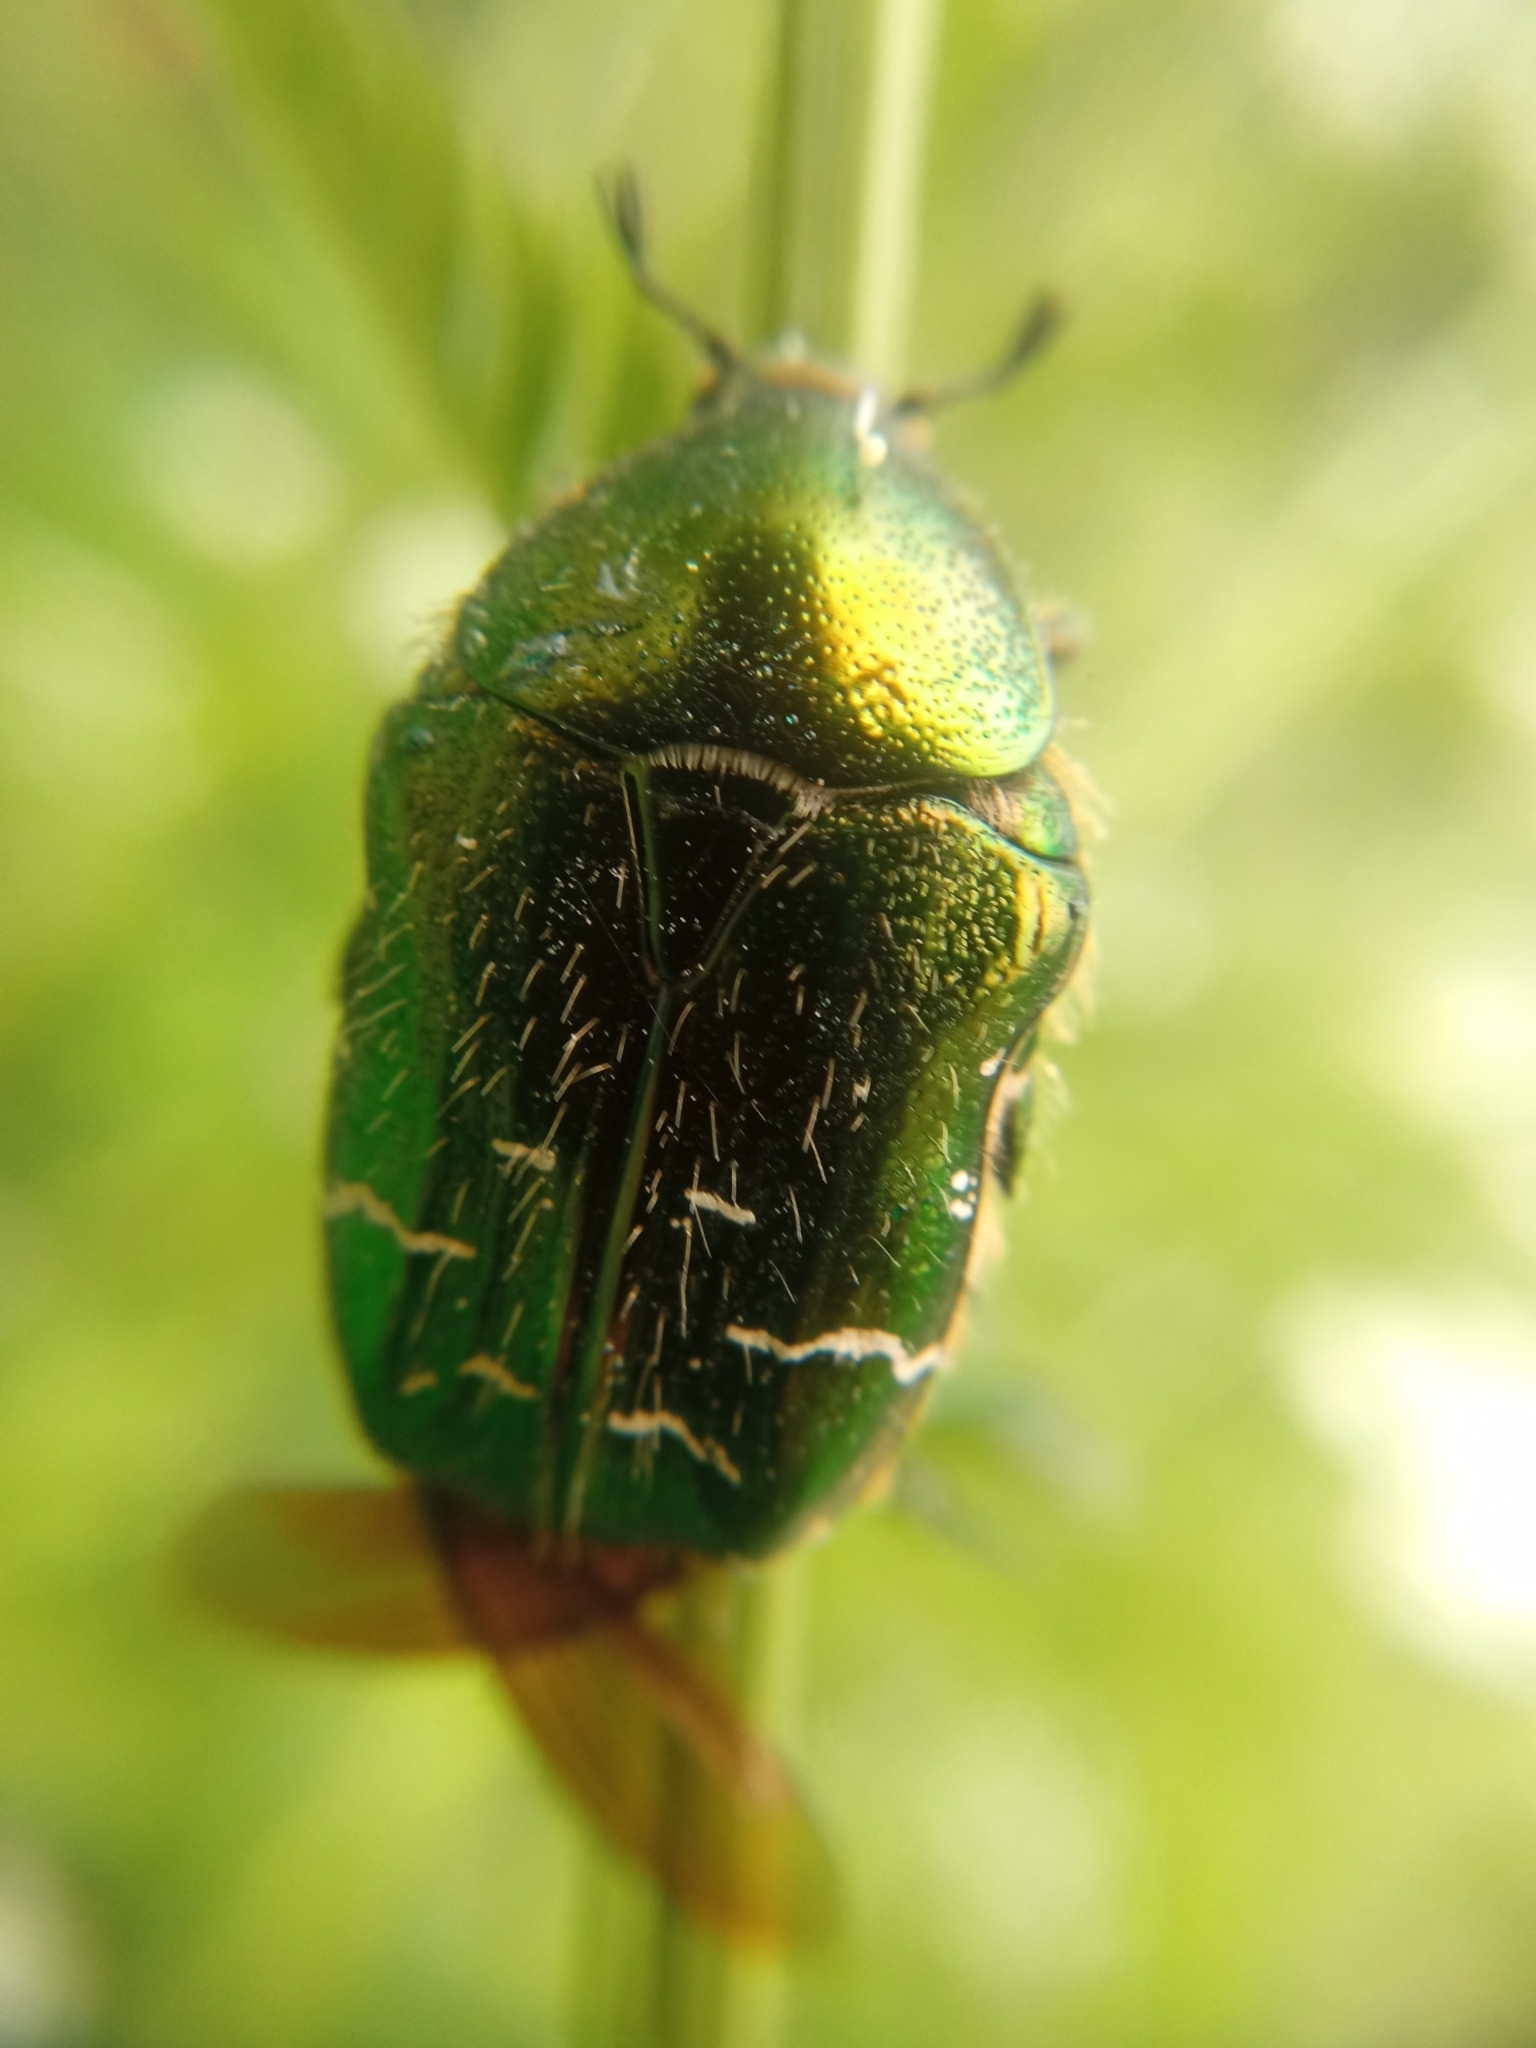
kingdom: Animalia
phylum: Arthropoda
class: Insecta
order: Coleoptera
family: Scarabaeidae
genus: Cetonia
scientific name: Cetonia aurata
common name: Rose chafer
